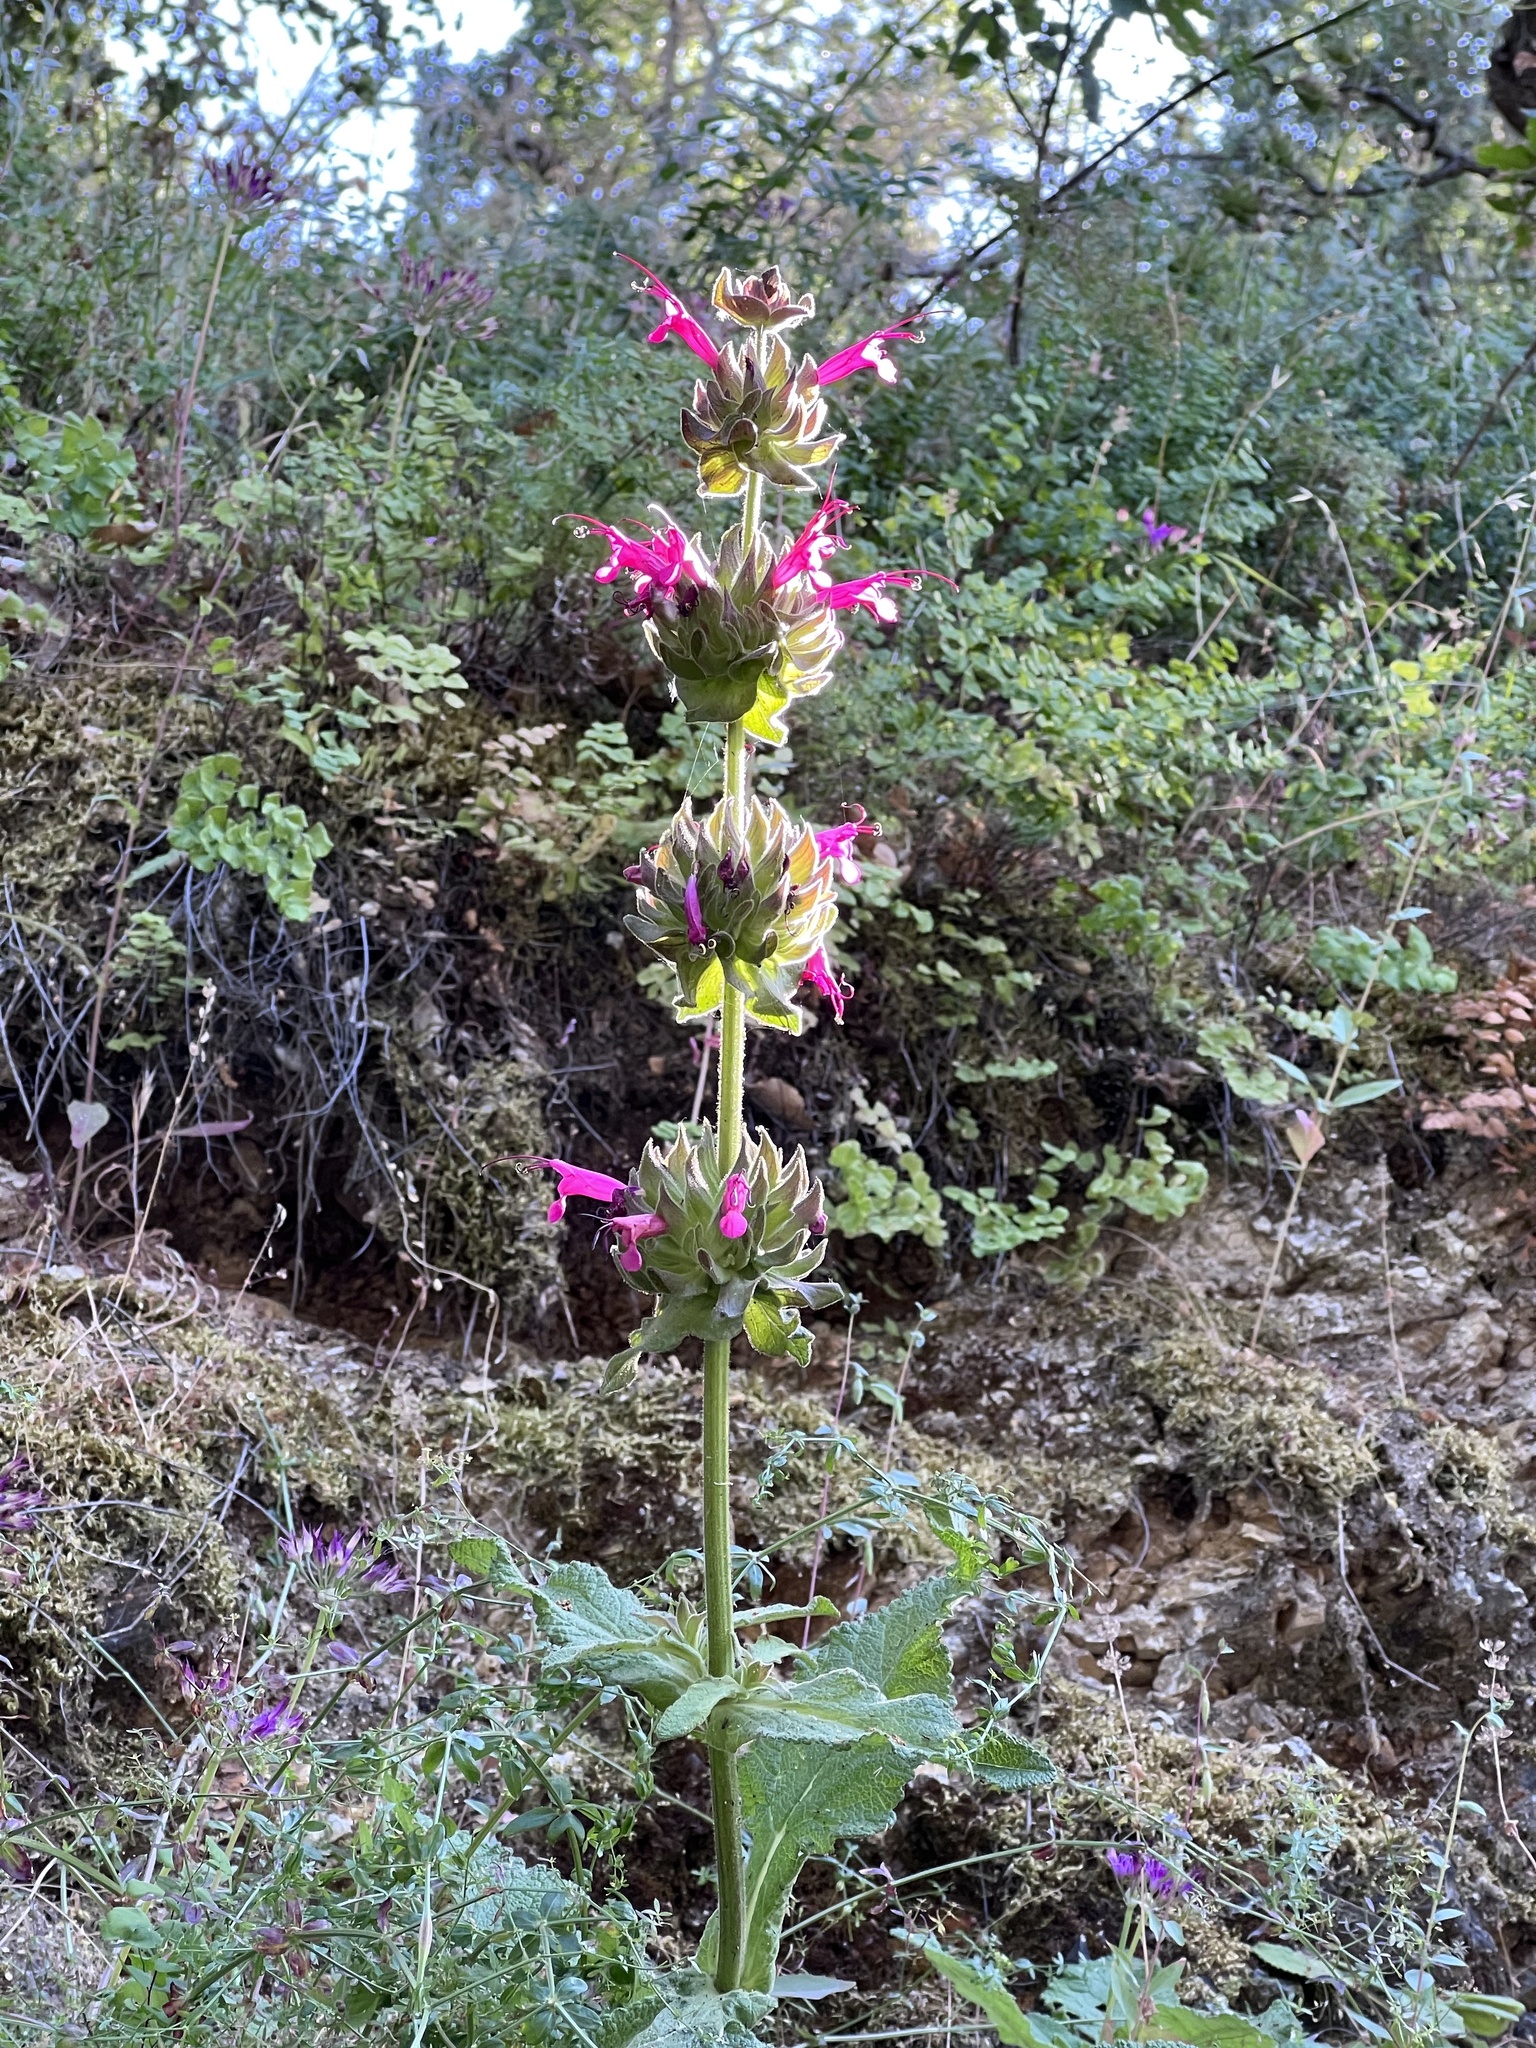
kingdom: Plantae
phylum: Tracheophyta
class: Magnoliopsida
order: Lamiales
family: Lamiaceae
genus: Salvia
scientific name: Salvia spathacea
